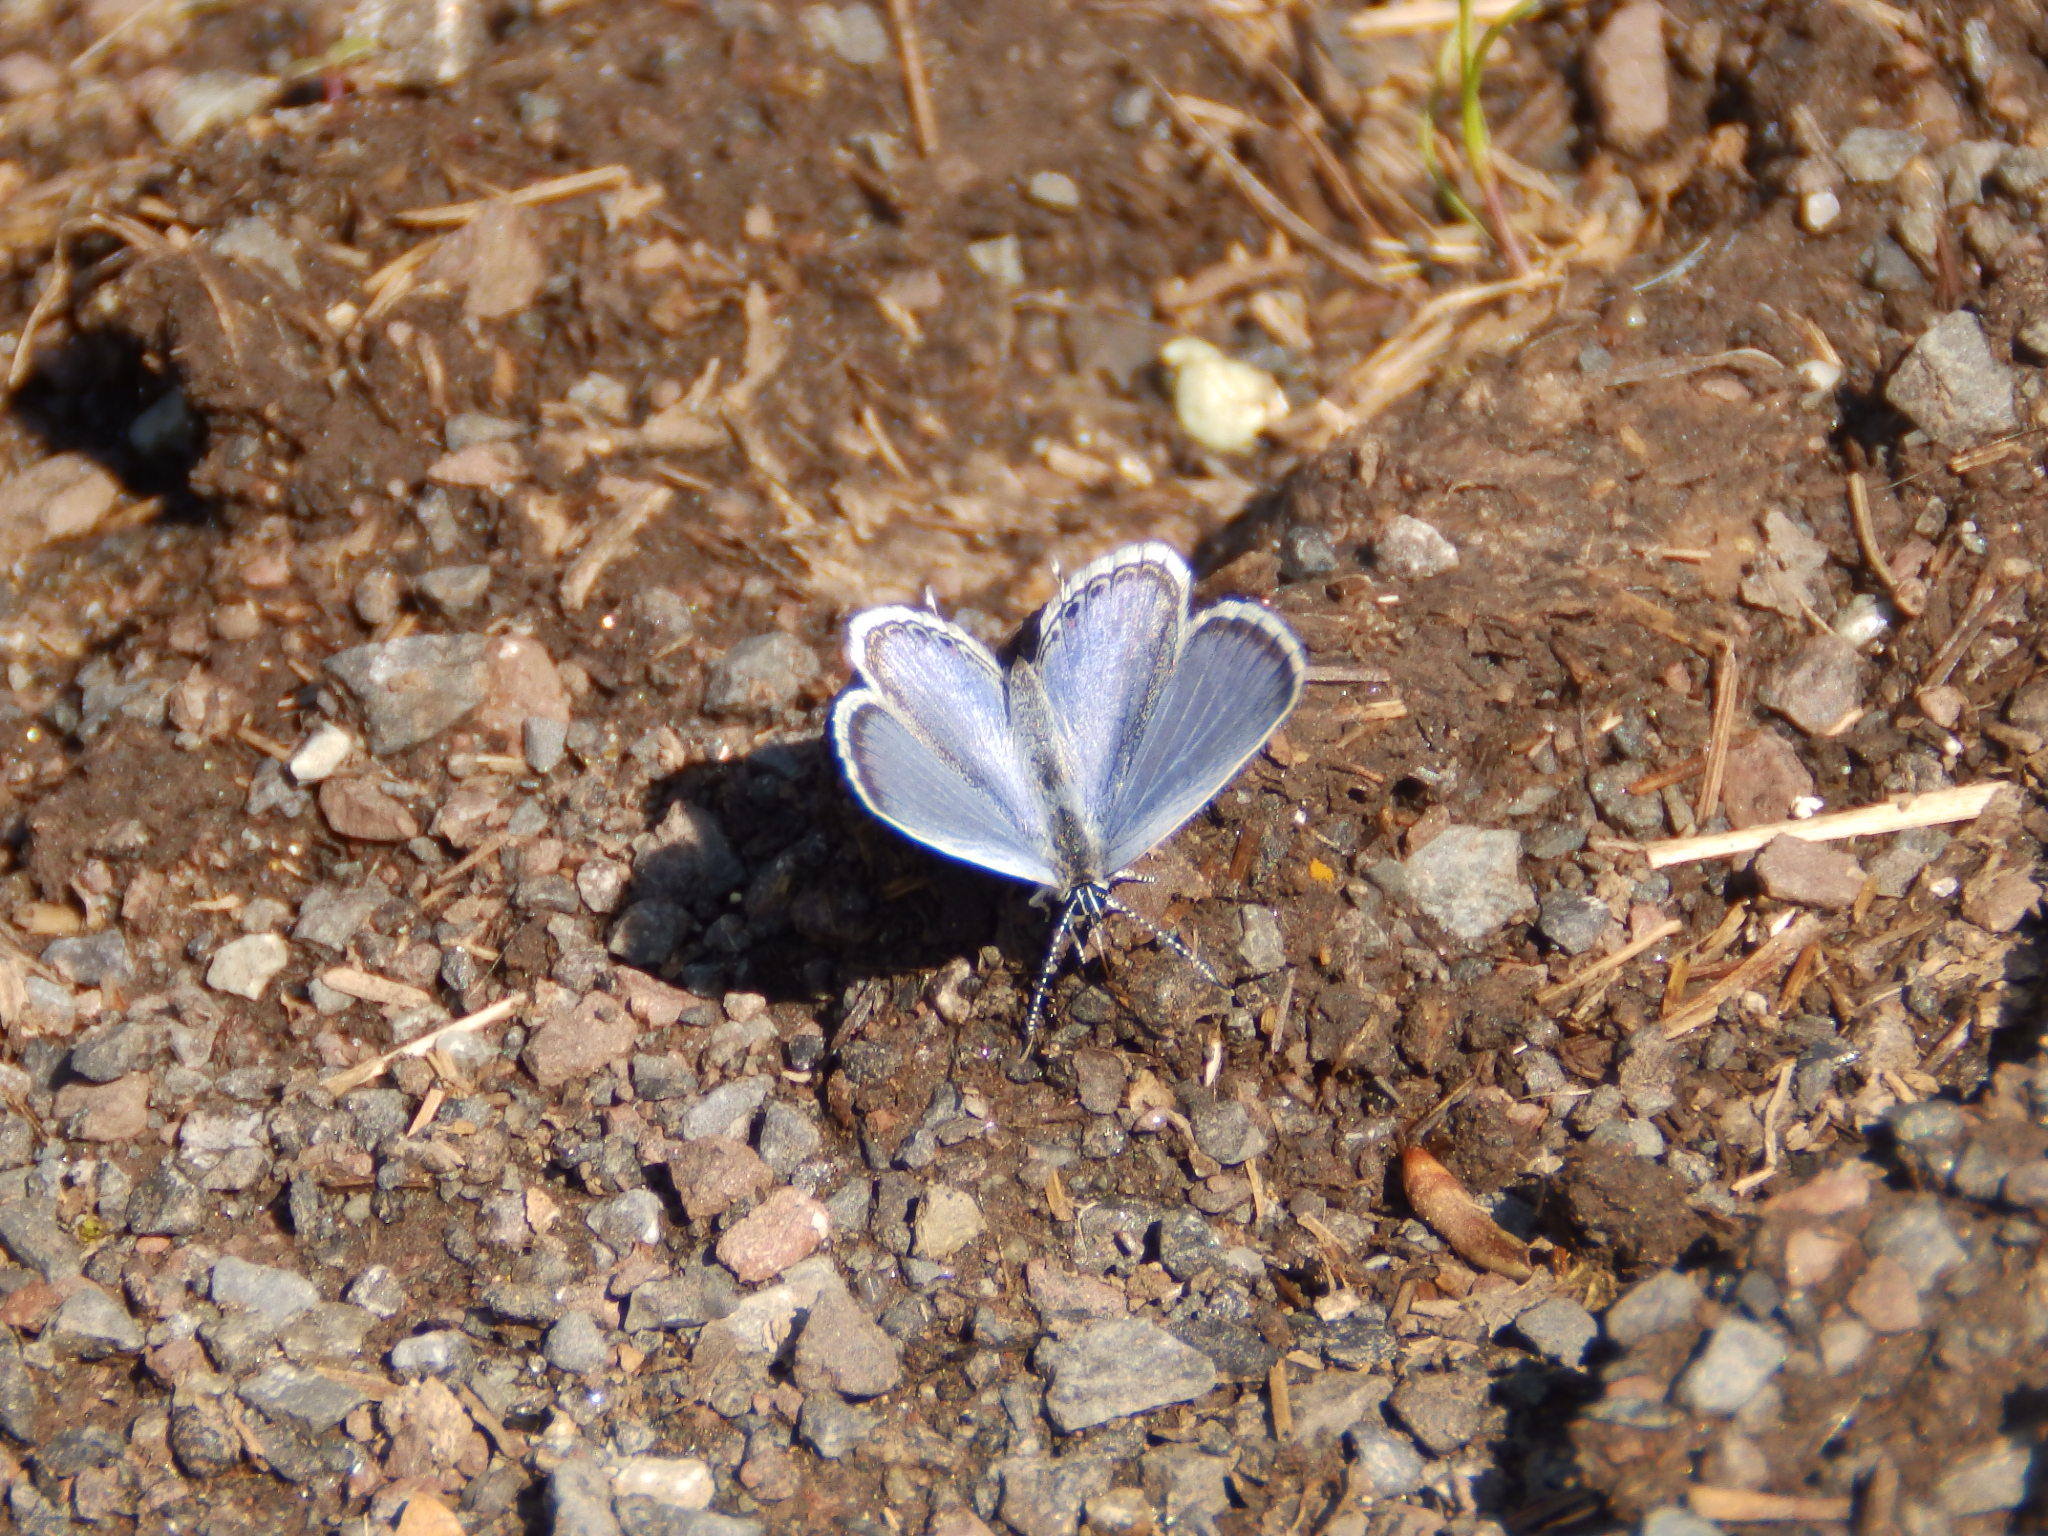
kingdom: Animalia
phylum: Arthropoda
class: Insecta
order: Lepidoptera
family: Lycaenidae
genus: Elkalyce
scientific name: Elkalyce comyntas
